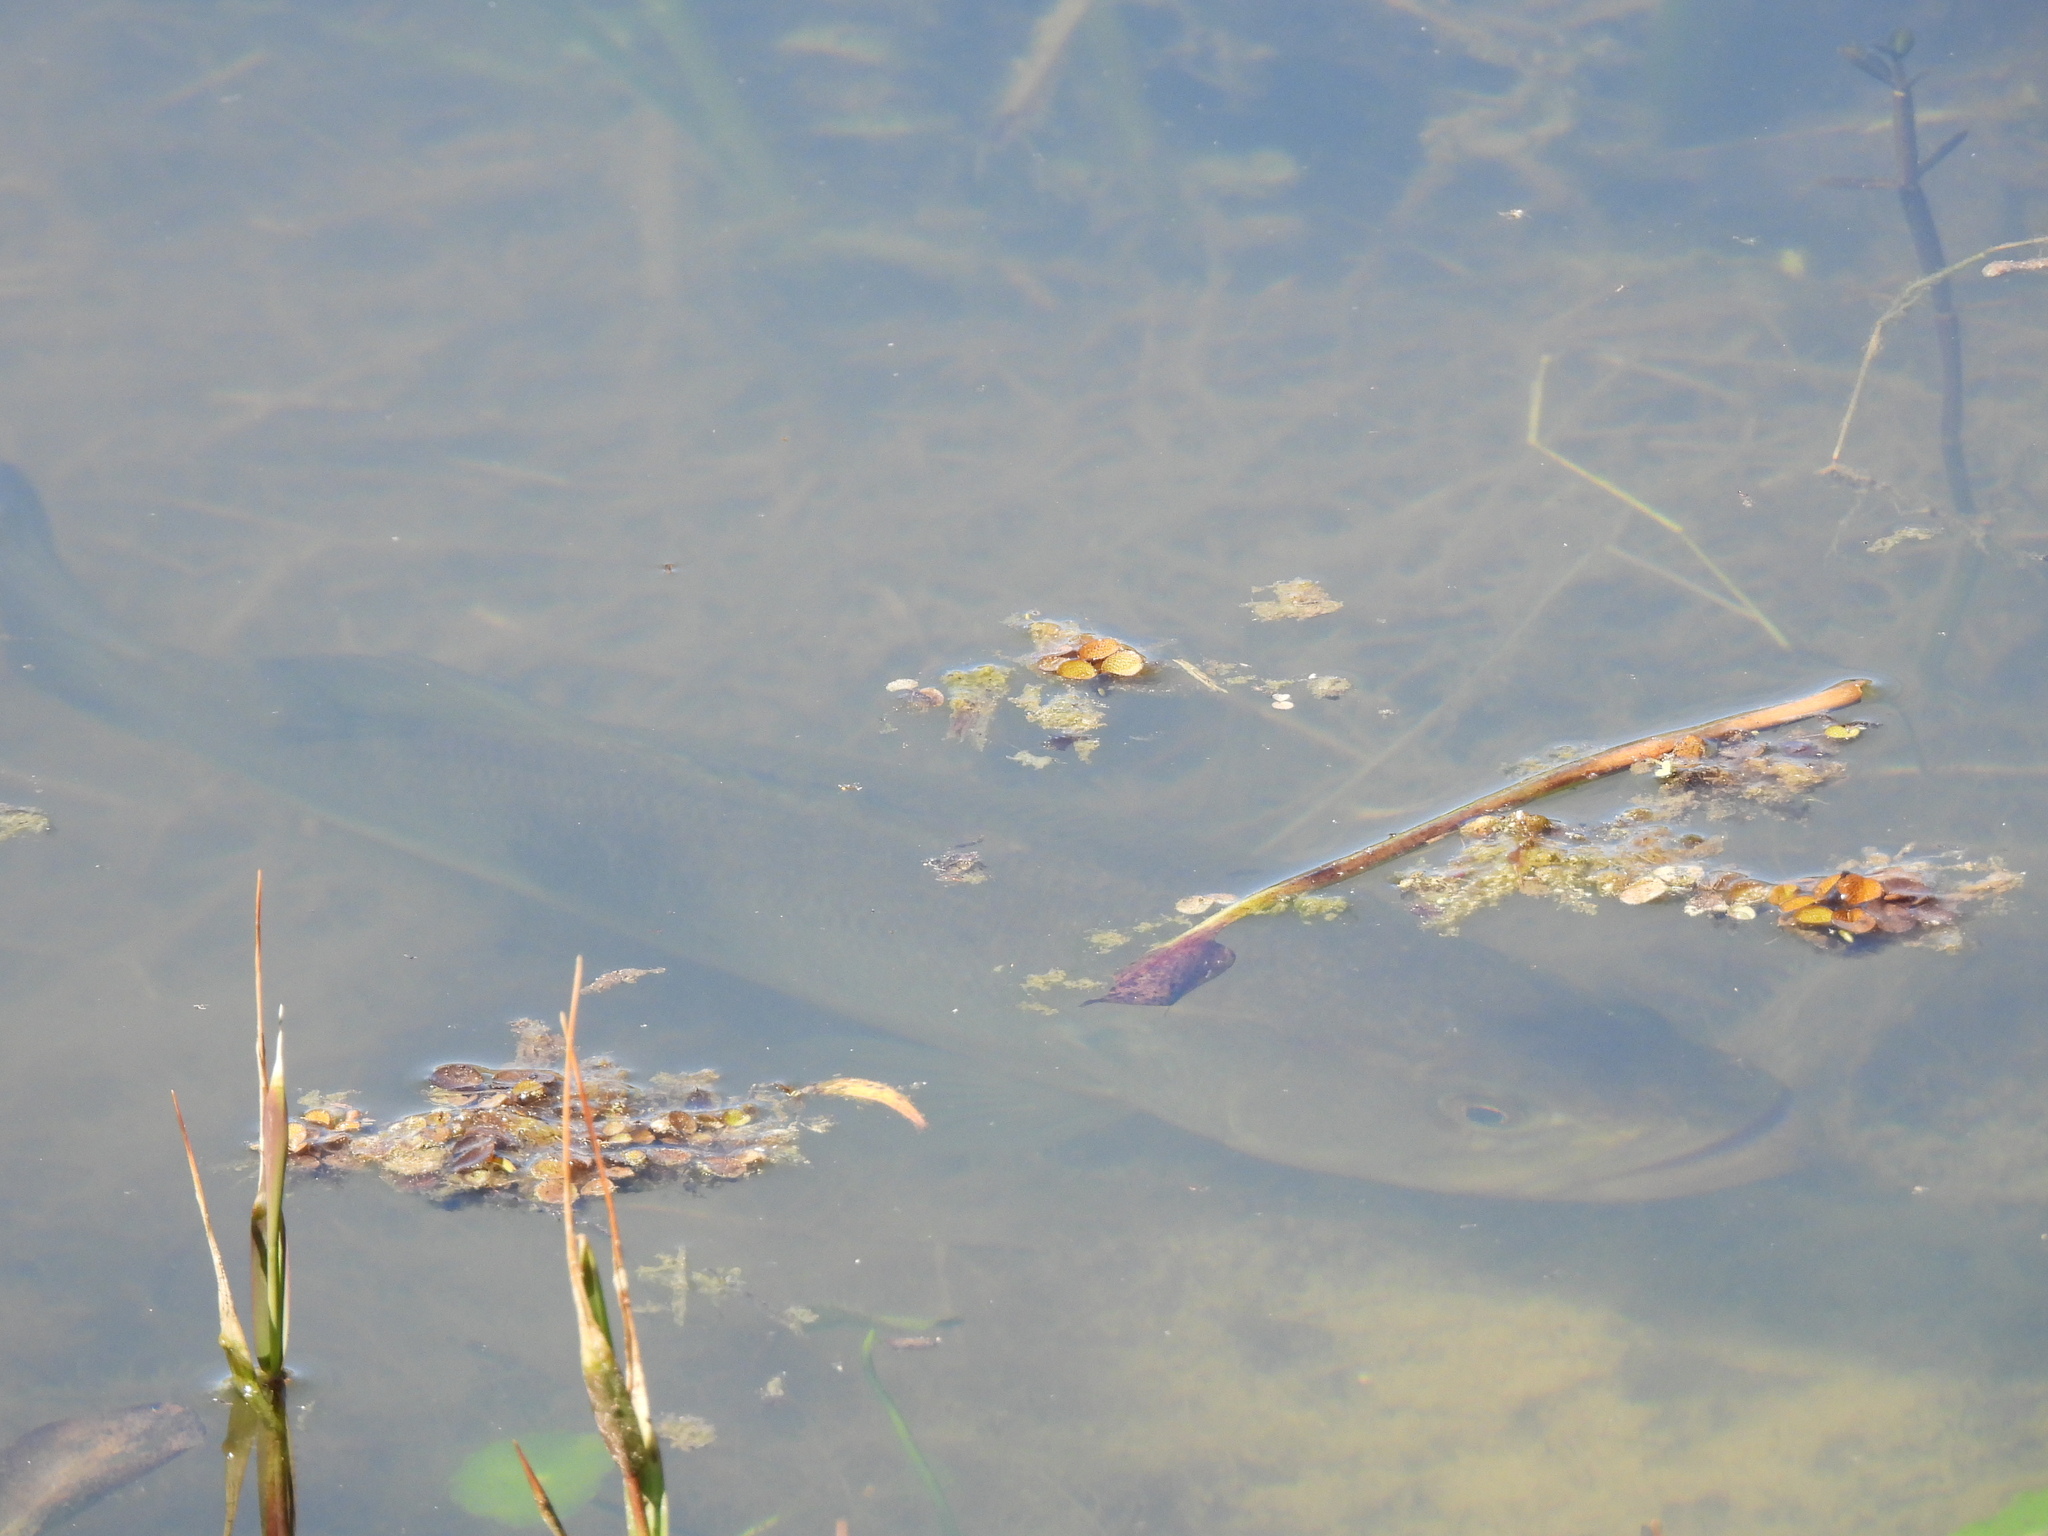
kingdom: Animalia
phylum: Chordata
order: Perciformes
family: Centrarchidae
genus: Micropterus
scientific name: Micropterus
